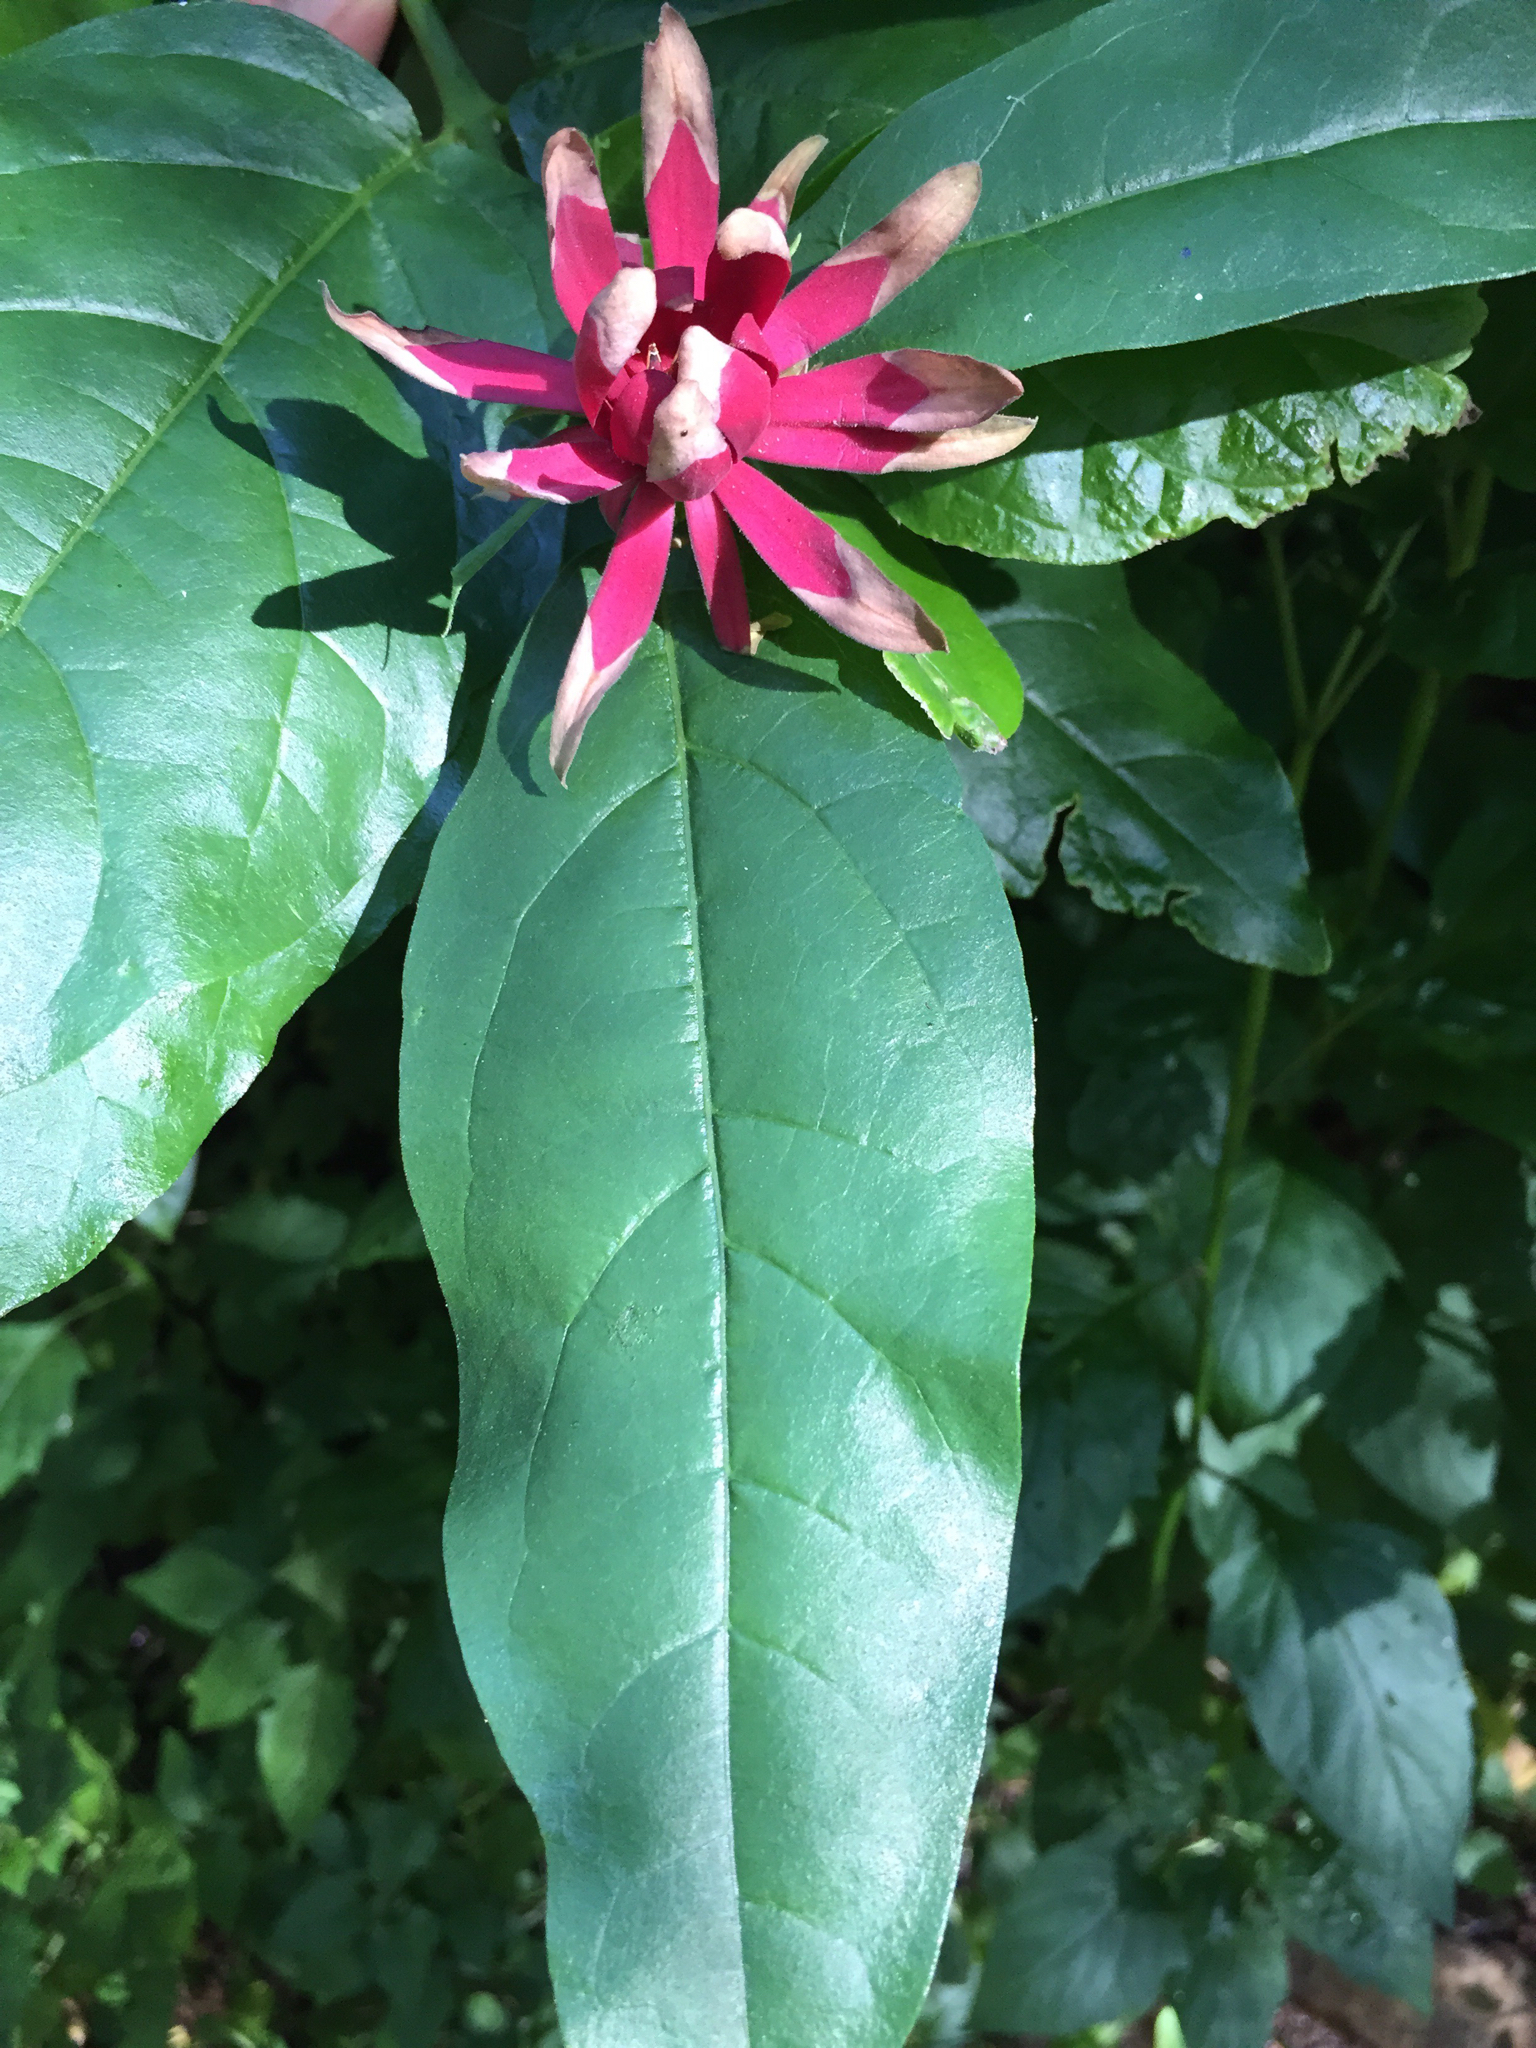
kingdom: Plantae
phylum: Tracheophyta
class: Magnoliopsida
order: Laurales
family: Calycanthaceae
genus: Calycanthus
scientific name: Calycanthus occidentalis
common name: California spicebush
